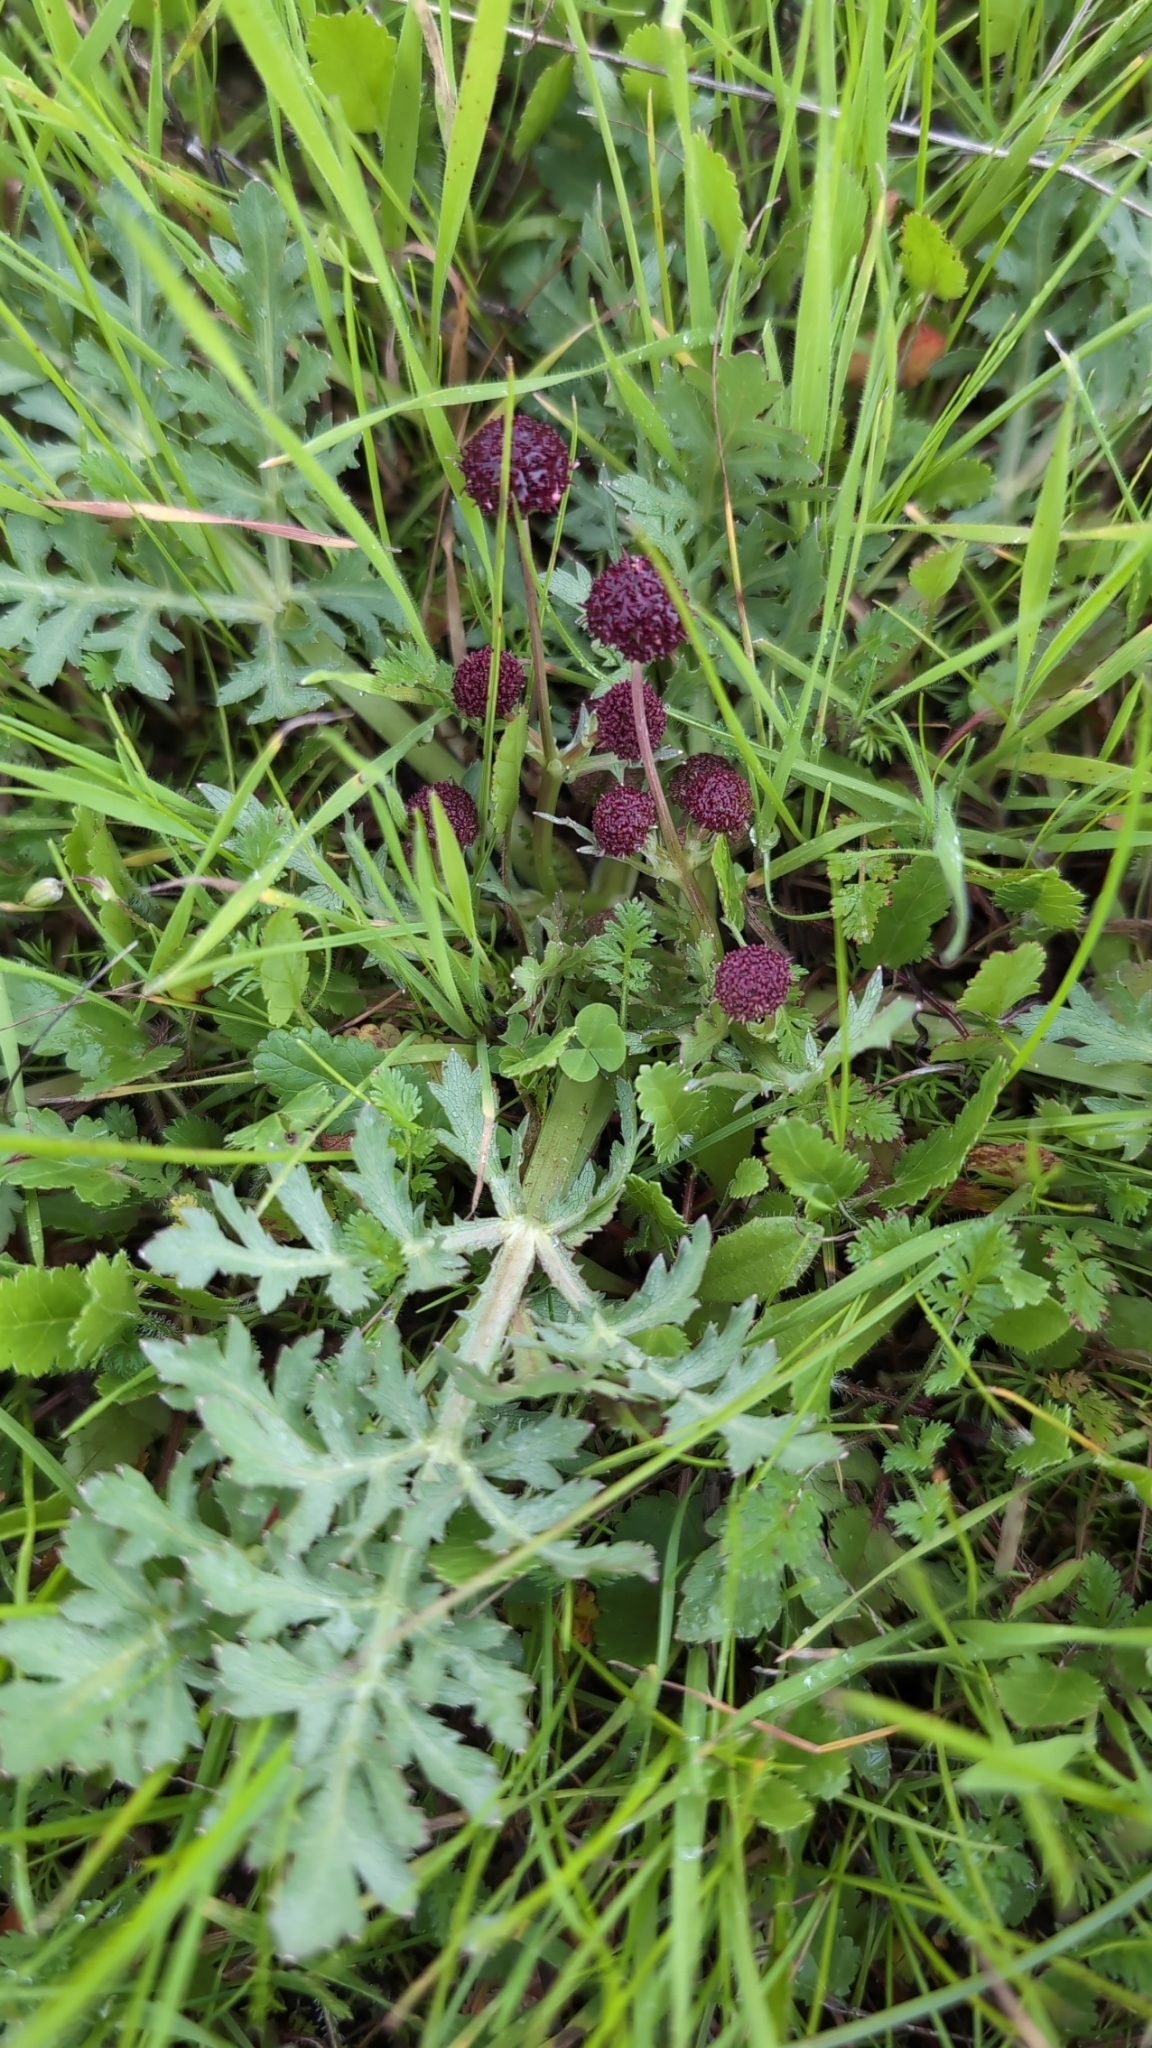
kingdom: Plantae
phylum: Tracheophyta
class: Magnoliopsida
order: Apiales
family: Apiaceae
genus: Sanicula
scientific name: Sanicula bipinnatifida
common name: Shoe-buttons
